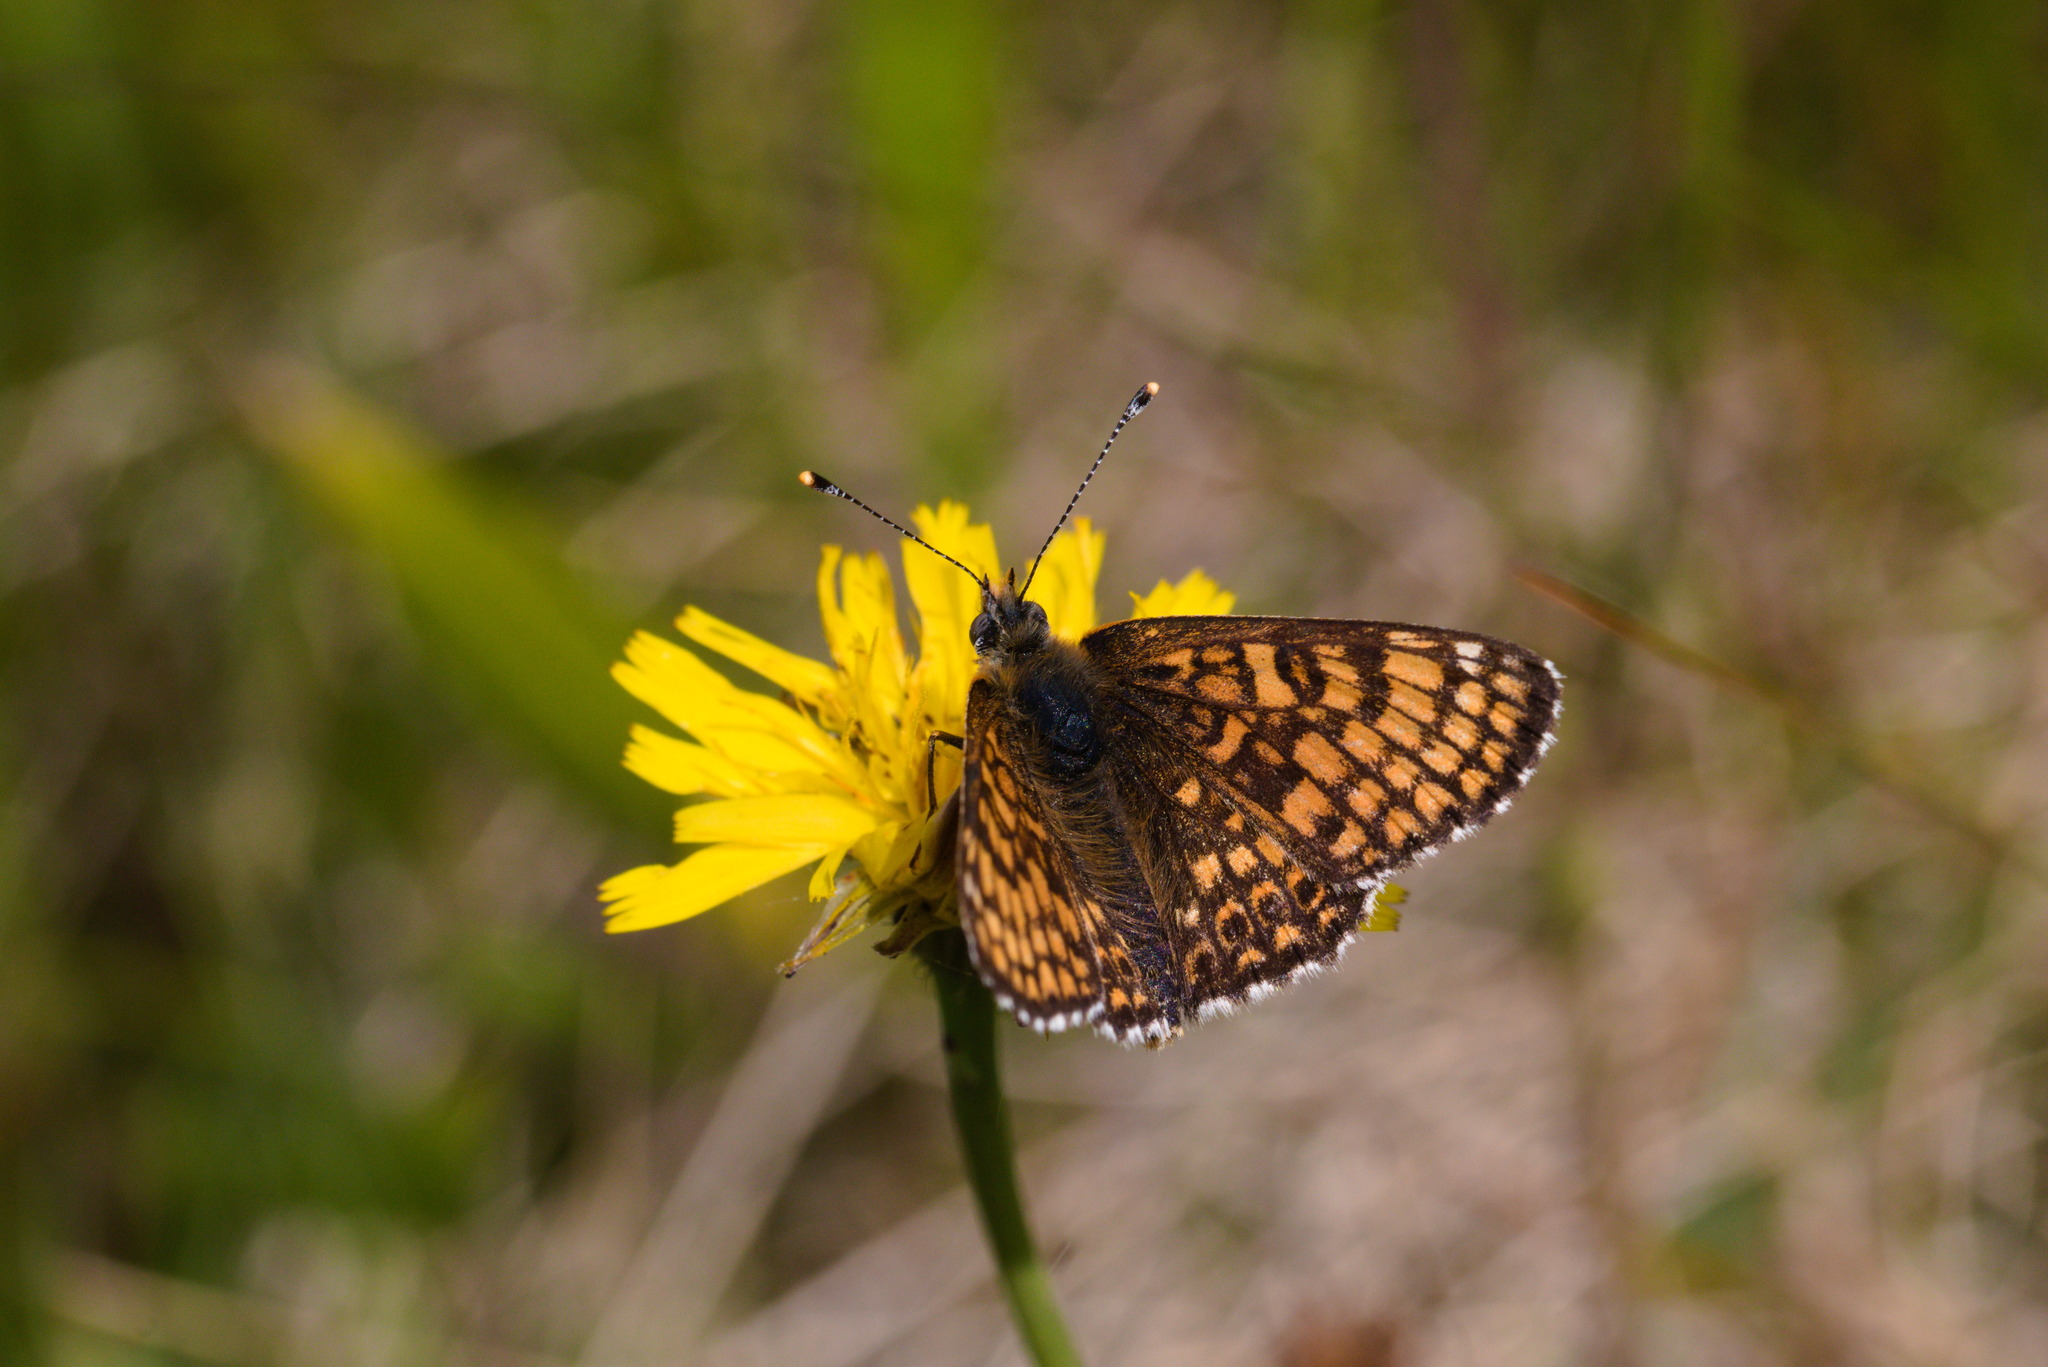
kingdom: Animalia
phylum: Arthropoda
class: Insecta
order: Lepidoptera
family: Nymphalidae
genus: Melitaea
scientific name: Melitaea cinxia
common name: Glanville fritillary
